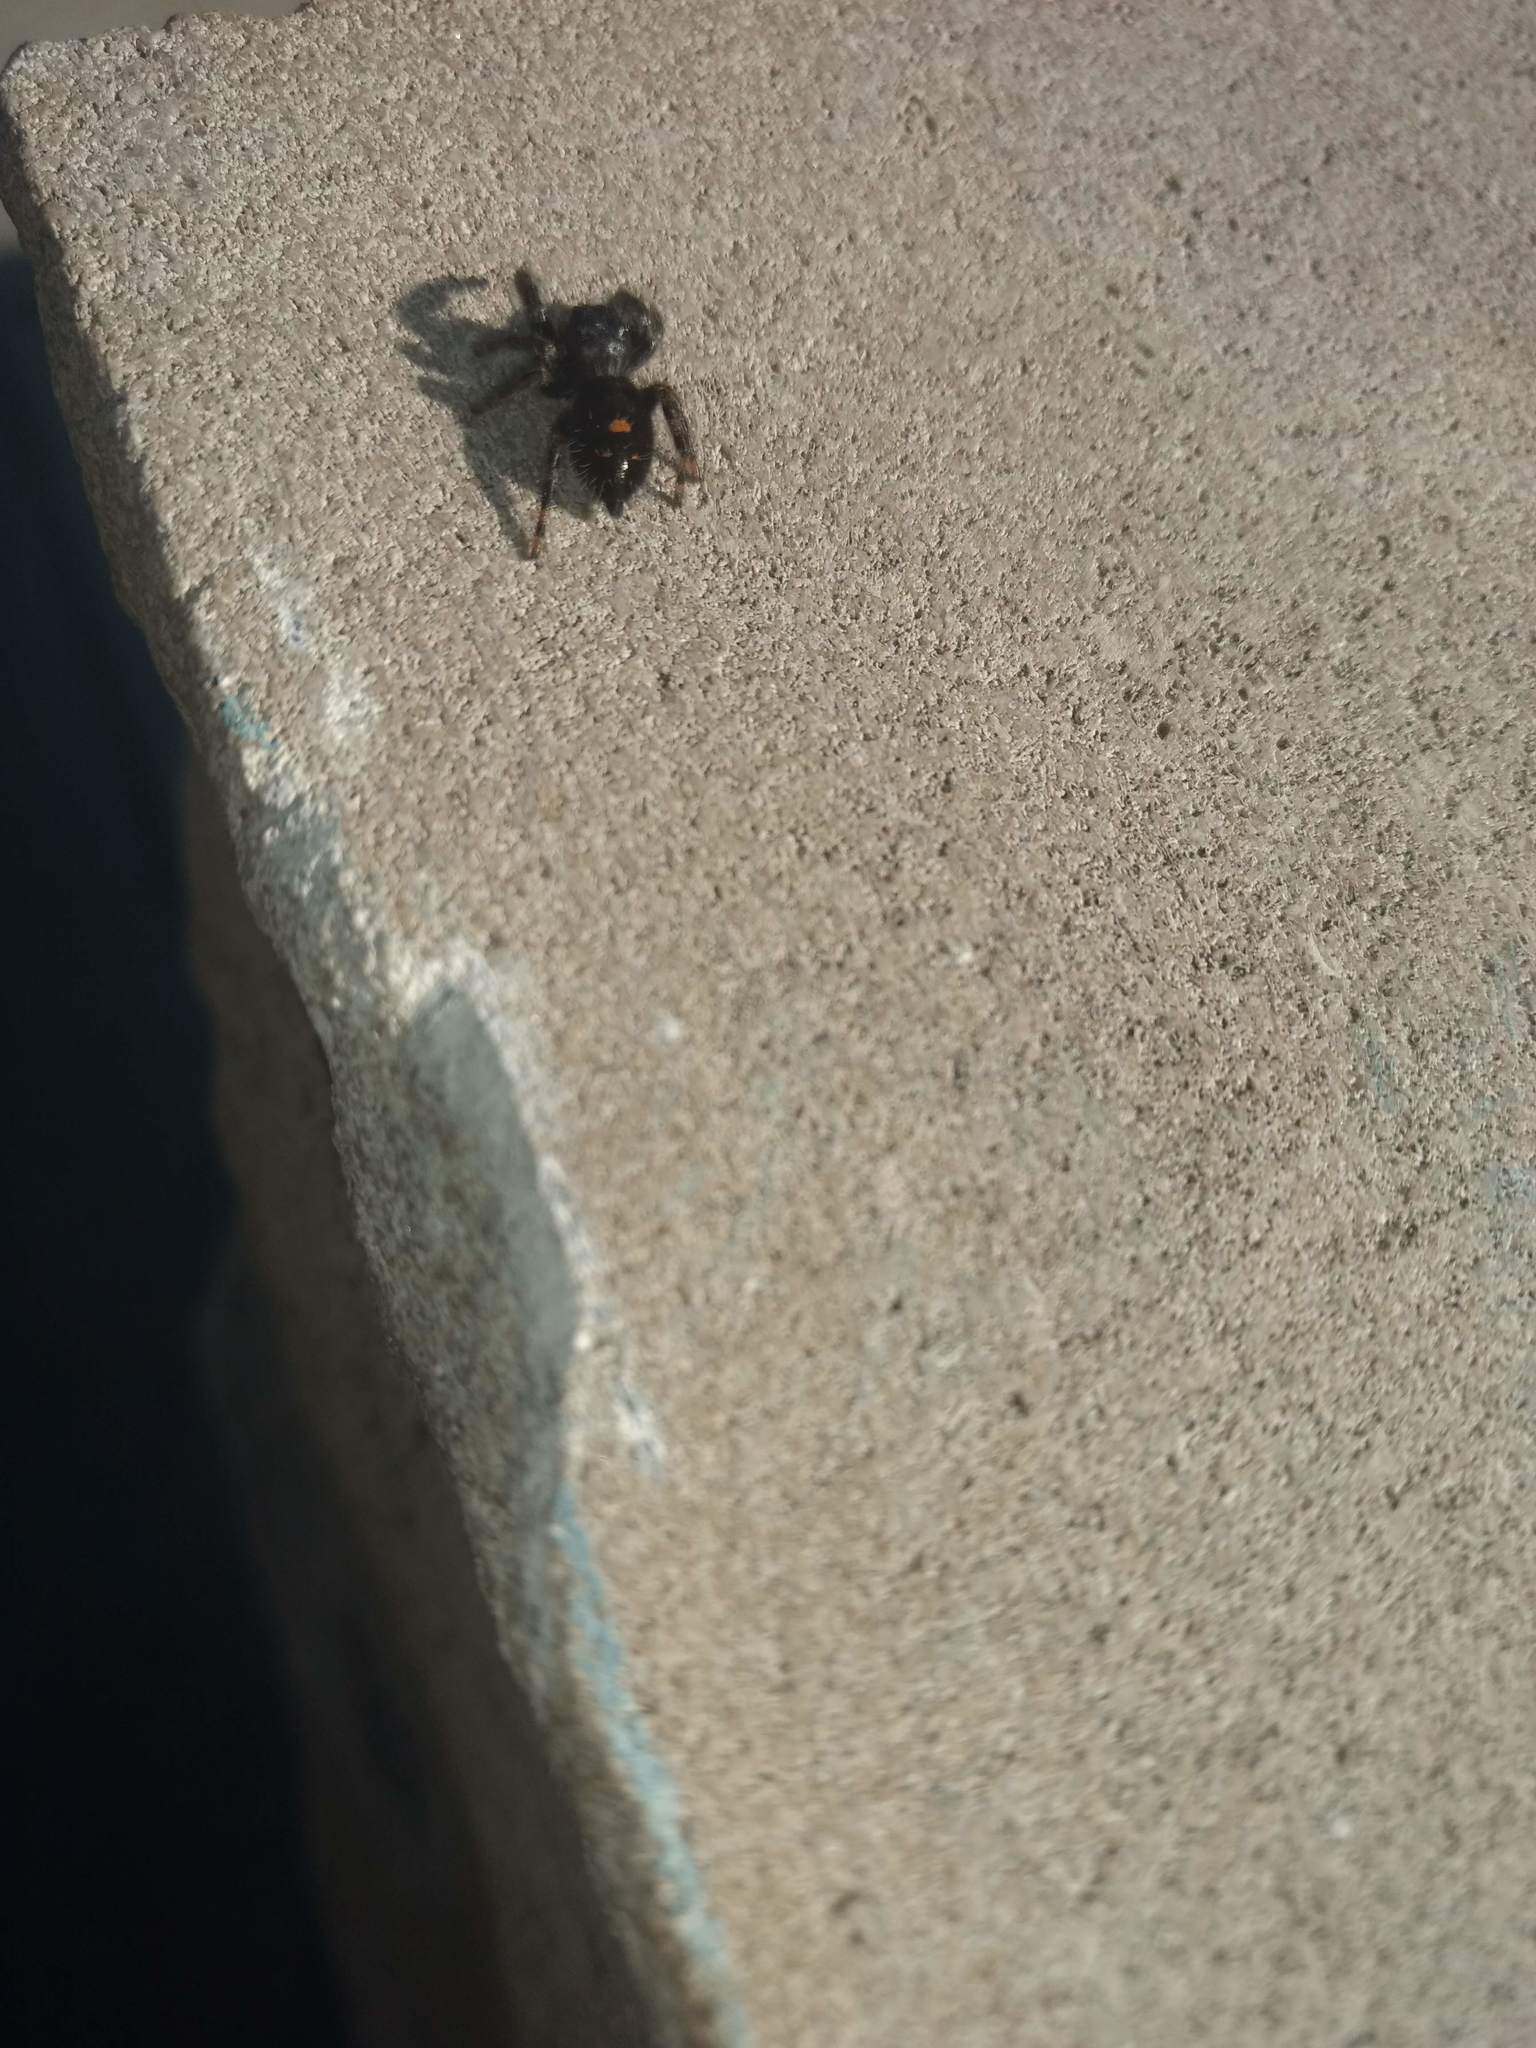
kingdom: Animalia
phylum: Arthropoda
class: Arachnida
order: Araneae
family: Salticidae
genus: Phidippus
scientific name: Phidippus audax
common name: Bold jumper
